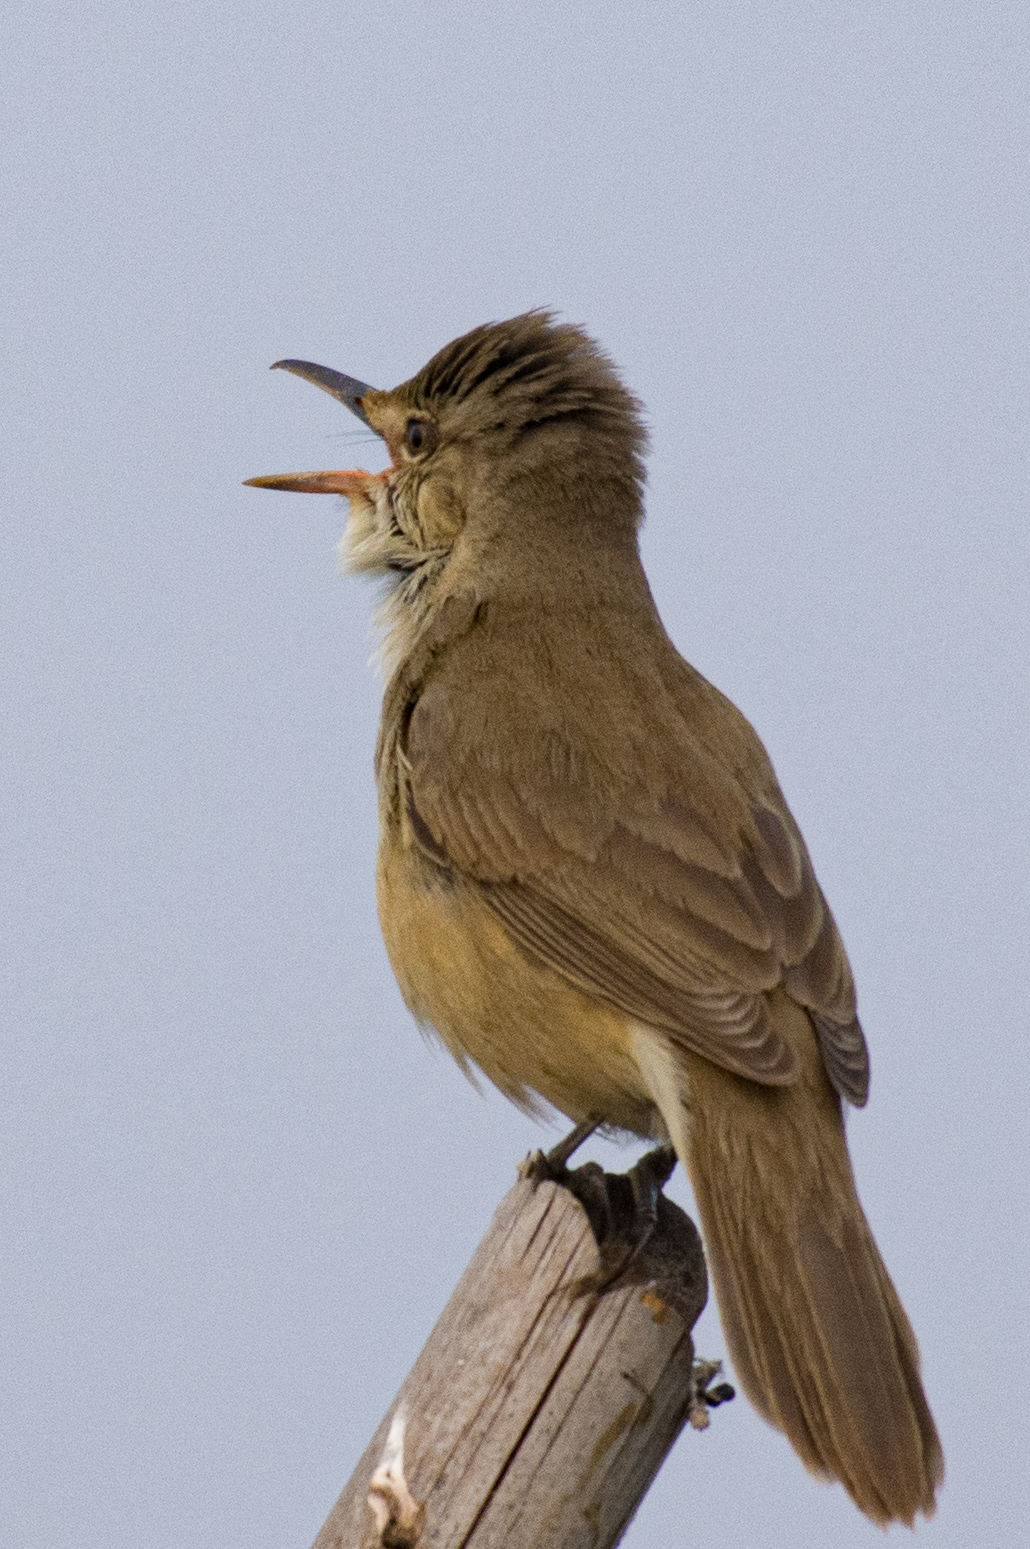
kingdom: Animalia
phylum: Chordata
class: Aves
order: Passeriformes
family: Acrocephalidae
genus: Acrocephalus
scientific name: Acrocephalus stentoreus
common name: Clamorous reed warbler
